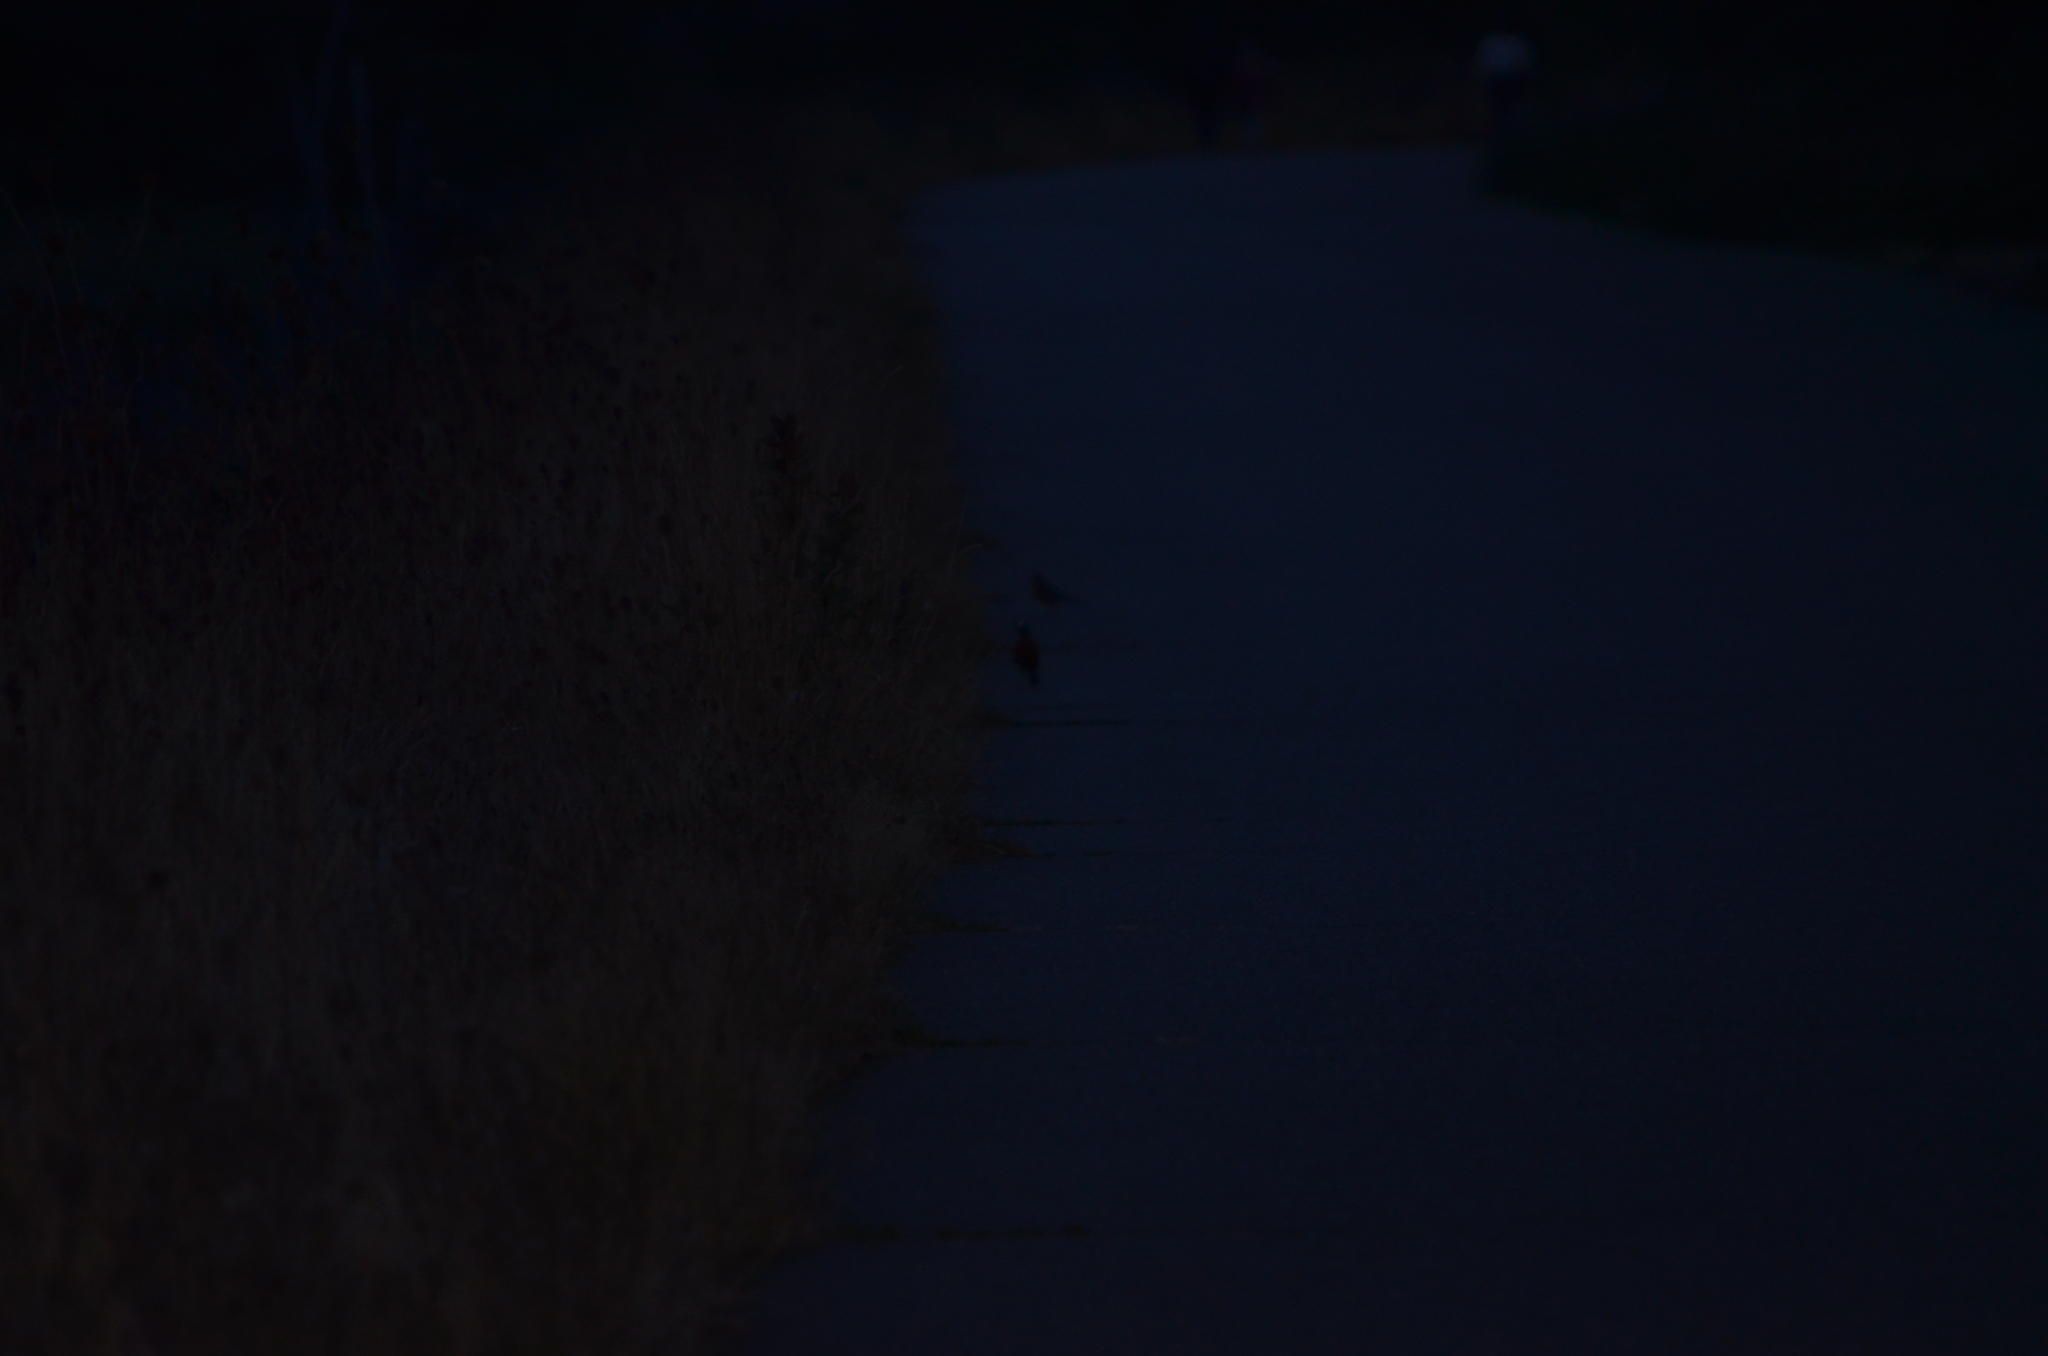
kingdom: Animalia
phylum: Chordata
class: Aves
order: Passeriformes
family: Turdidae
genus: Turdus
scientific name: Turdus migratorius
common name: American robin
